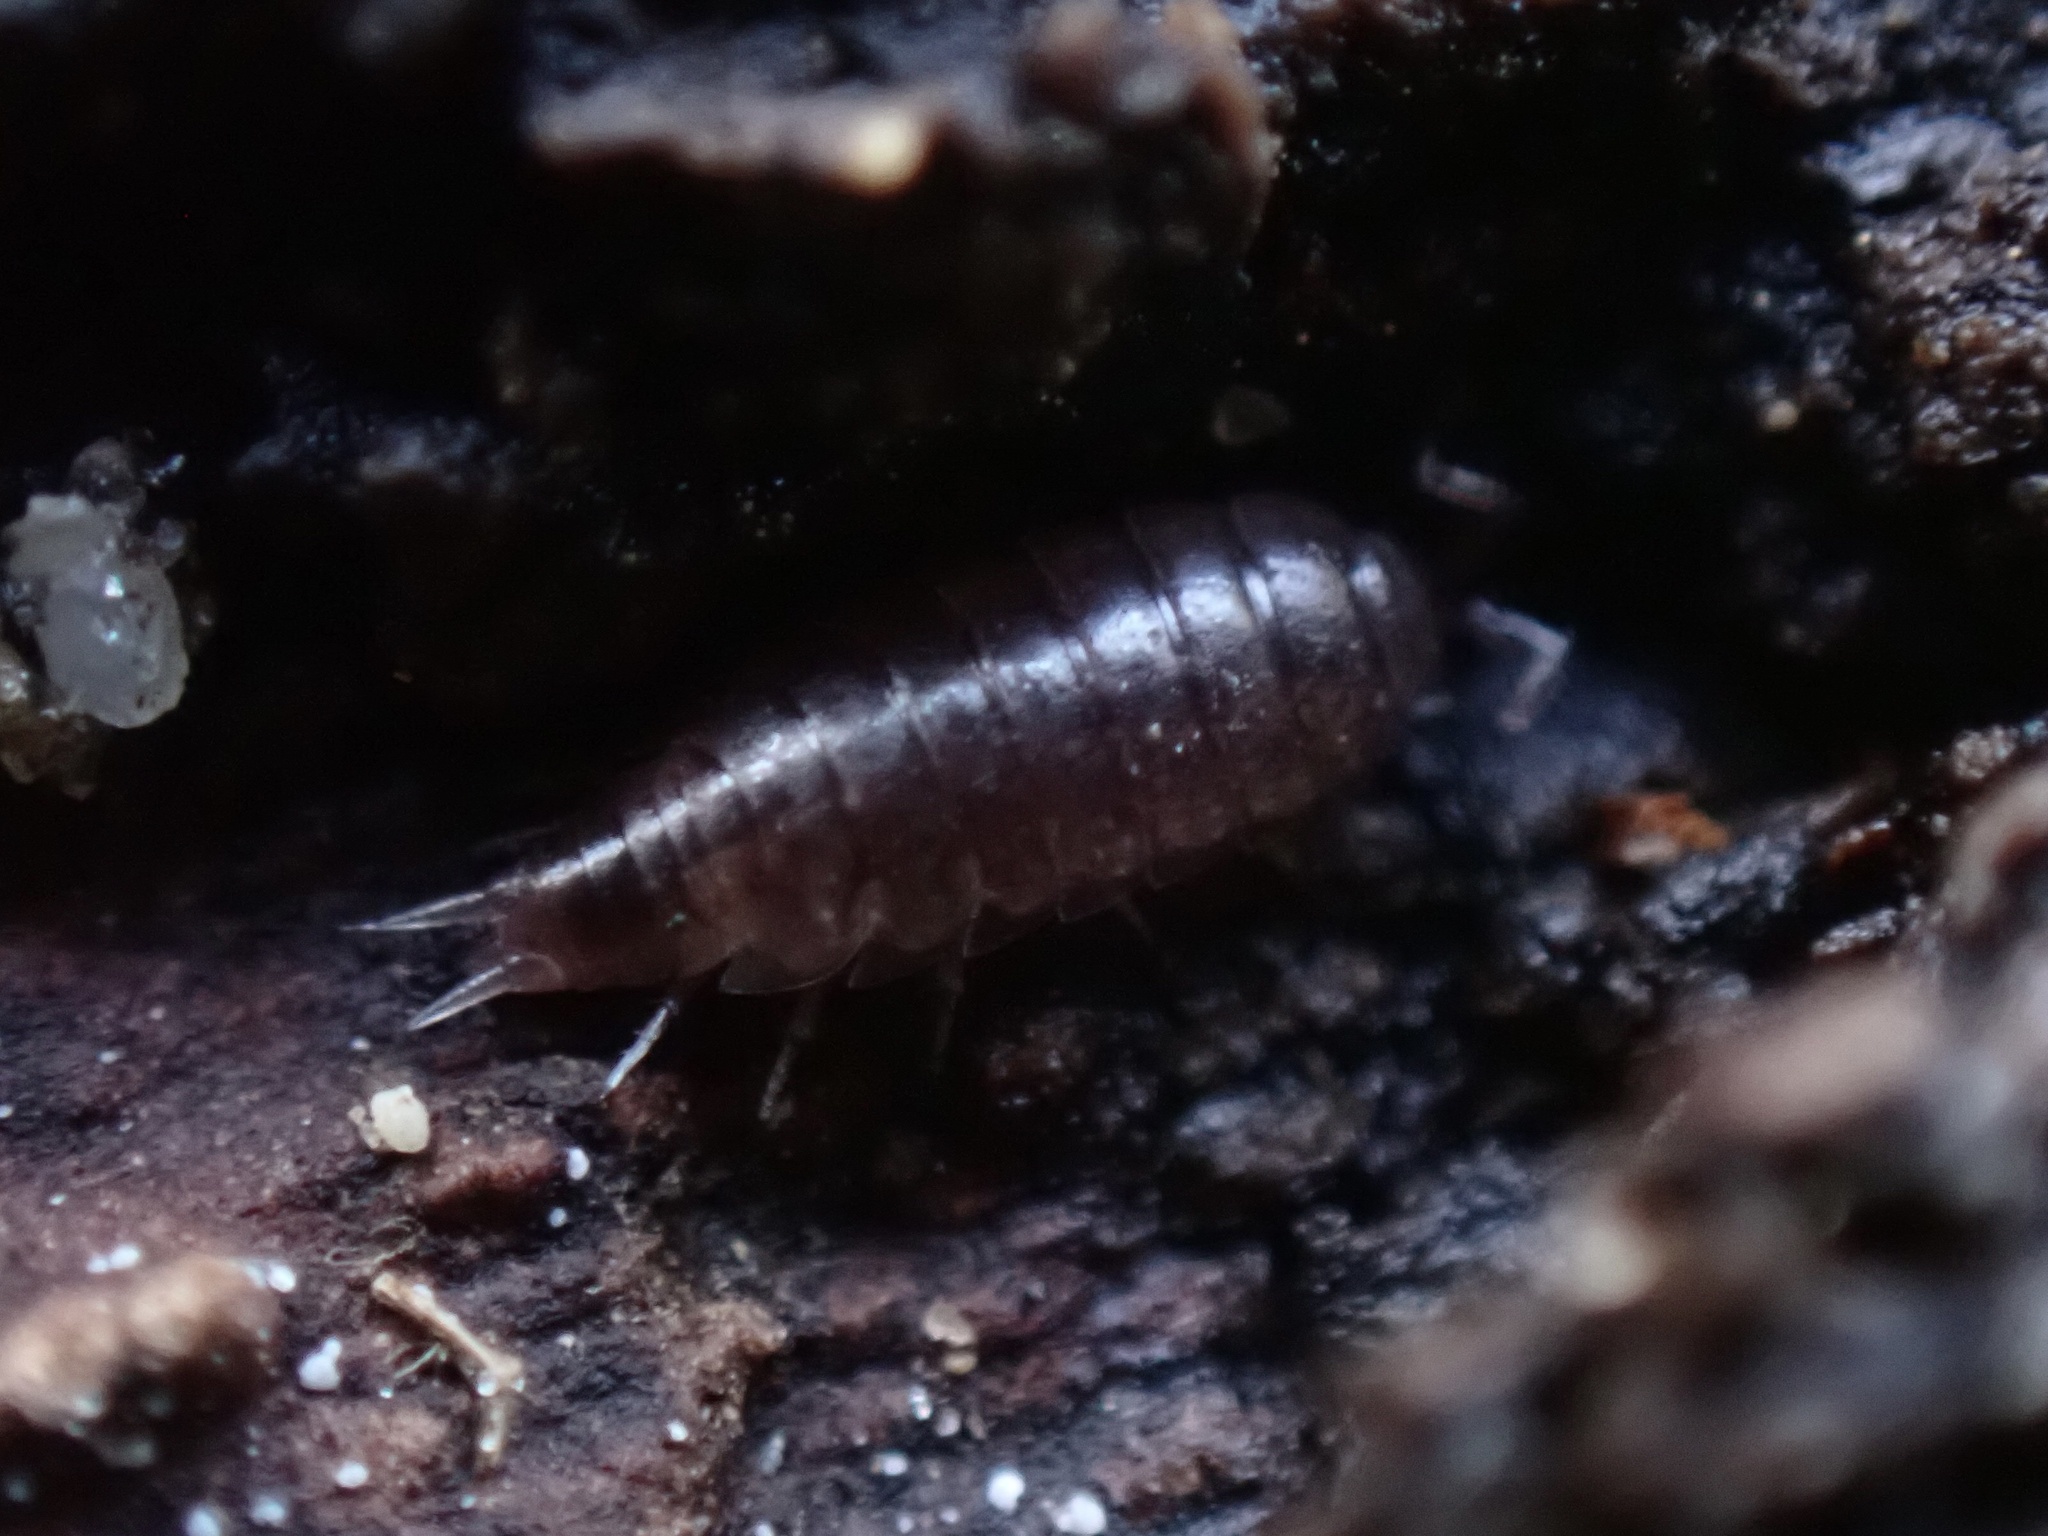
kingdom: Animalia
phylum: Arthropoda
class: Malacostraca
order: Isopoda
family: Trichoniscidae
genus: Hyloniscus
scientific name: Hyloniscus riparius
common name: Isopod
